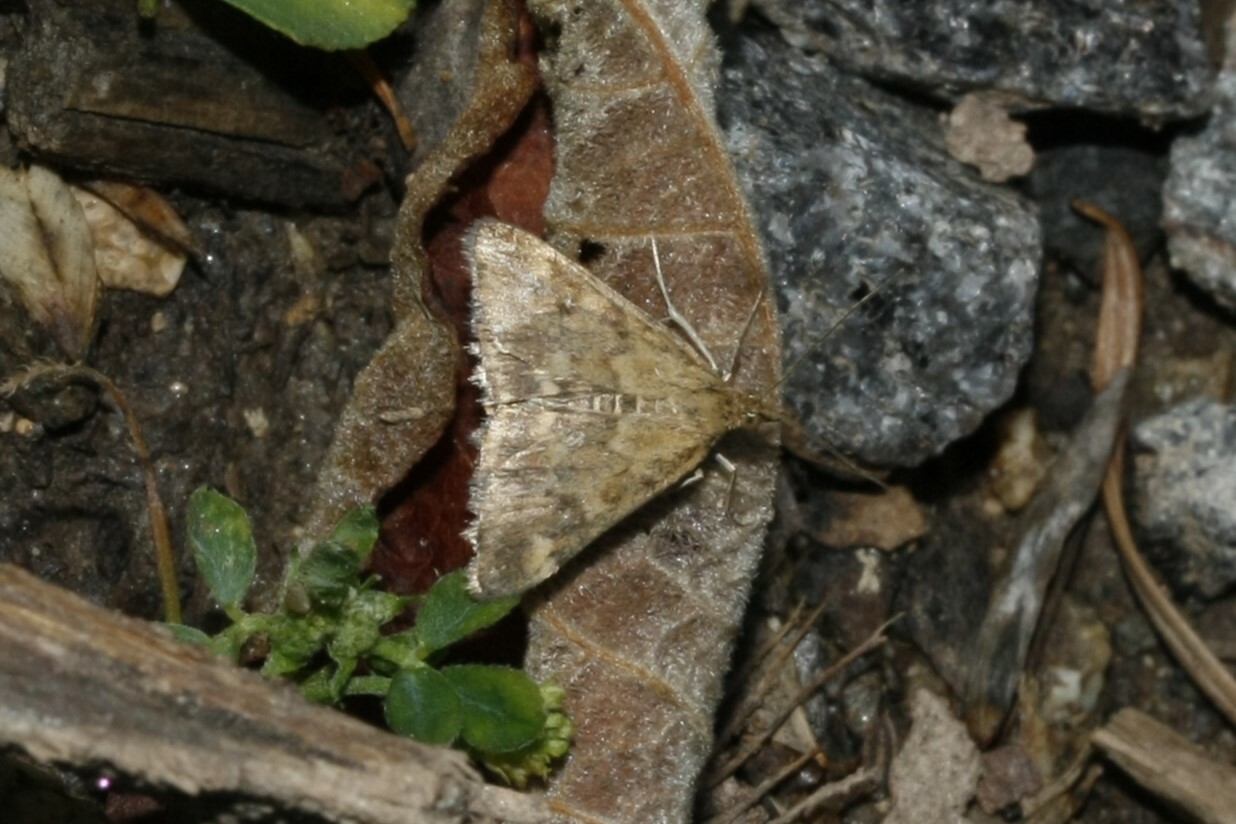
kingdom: Animalia
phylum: Arthropoda
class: Insecta
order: Lepidoptera
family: Crambidae
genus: Pyrausta
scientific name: Pyrausta despicata
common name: Straw-barred pearl
